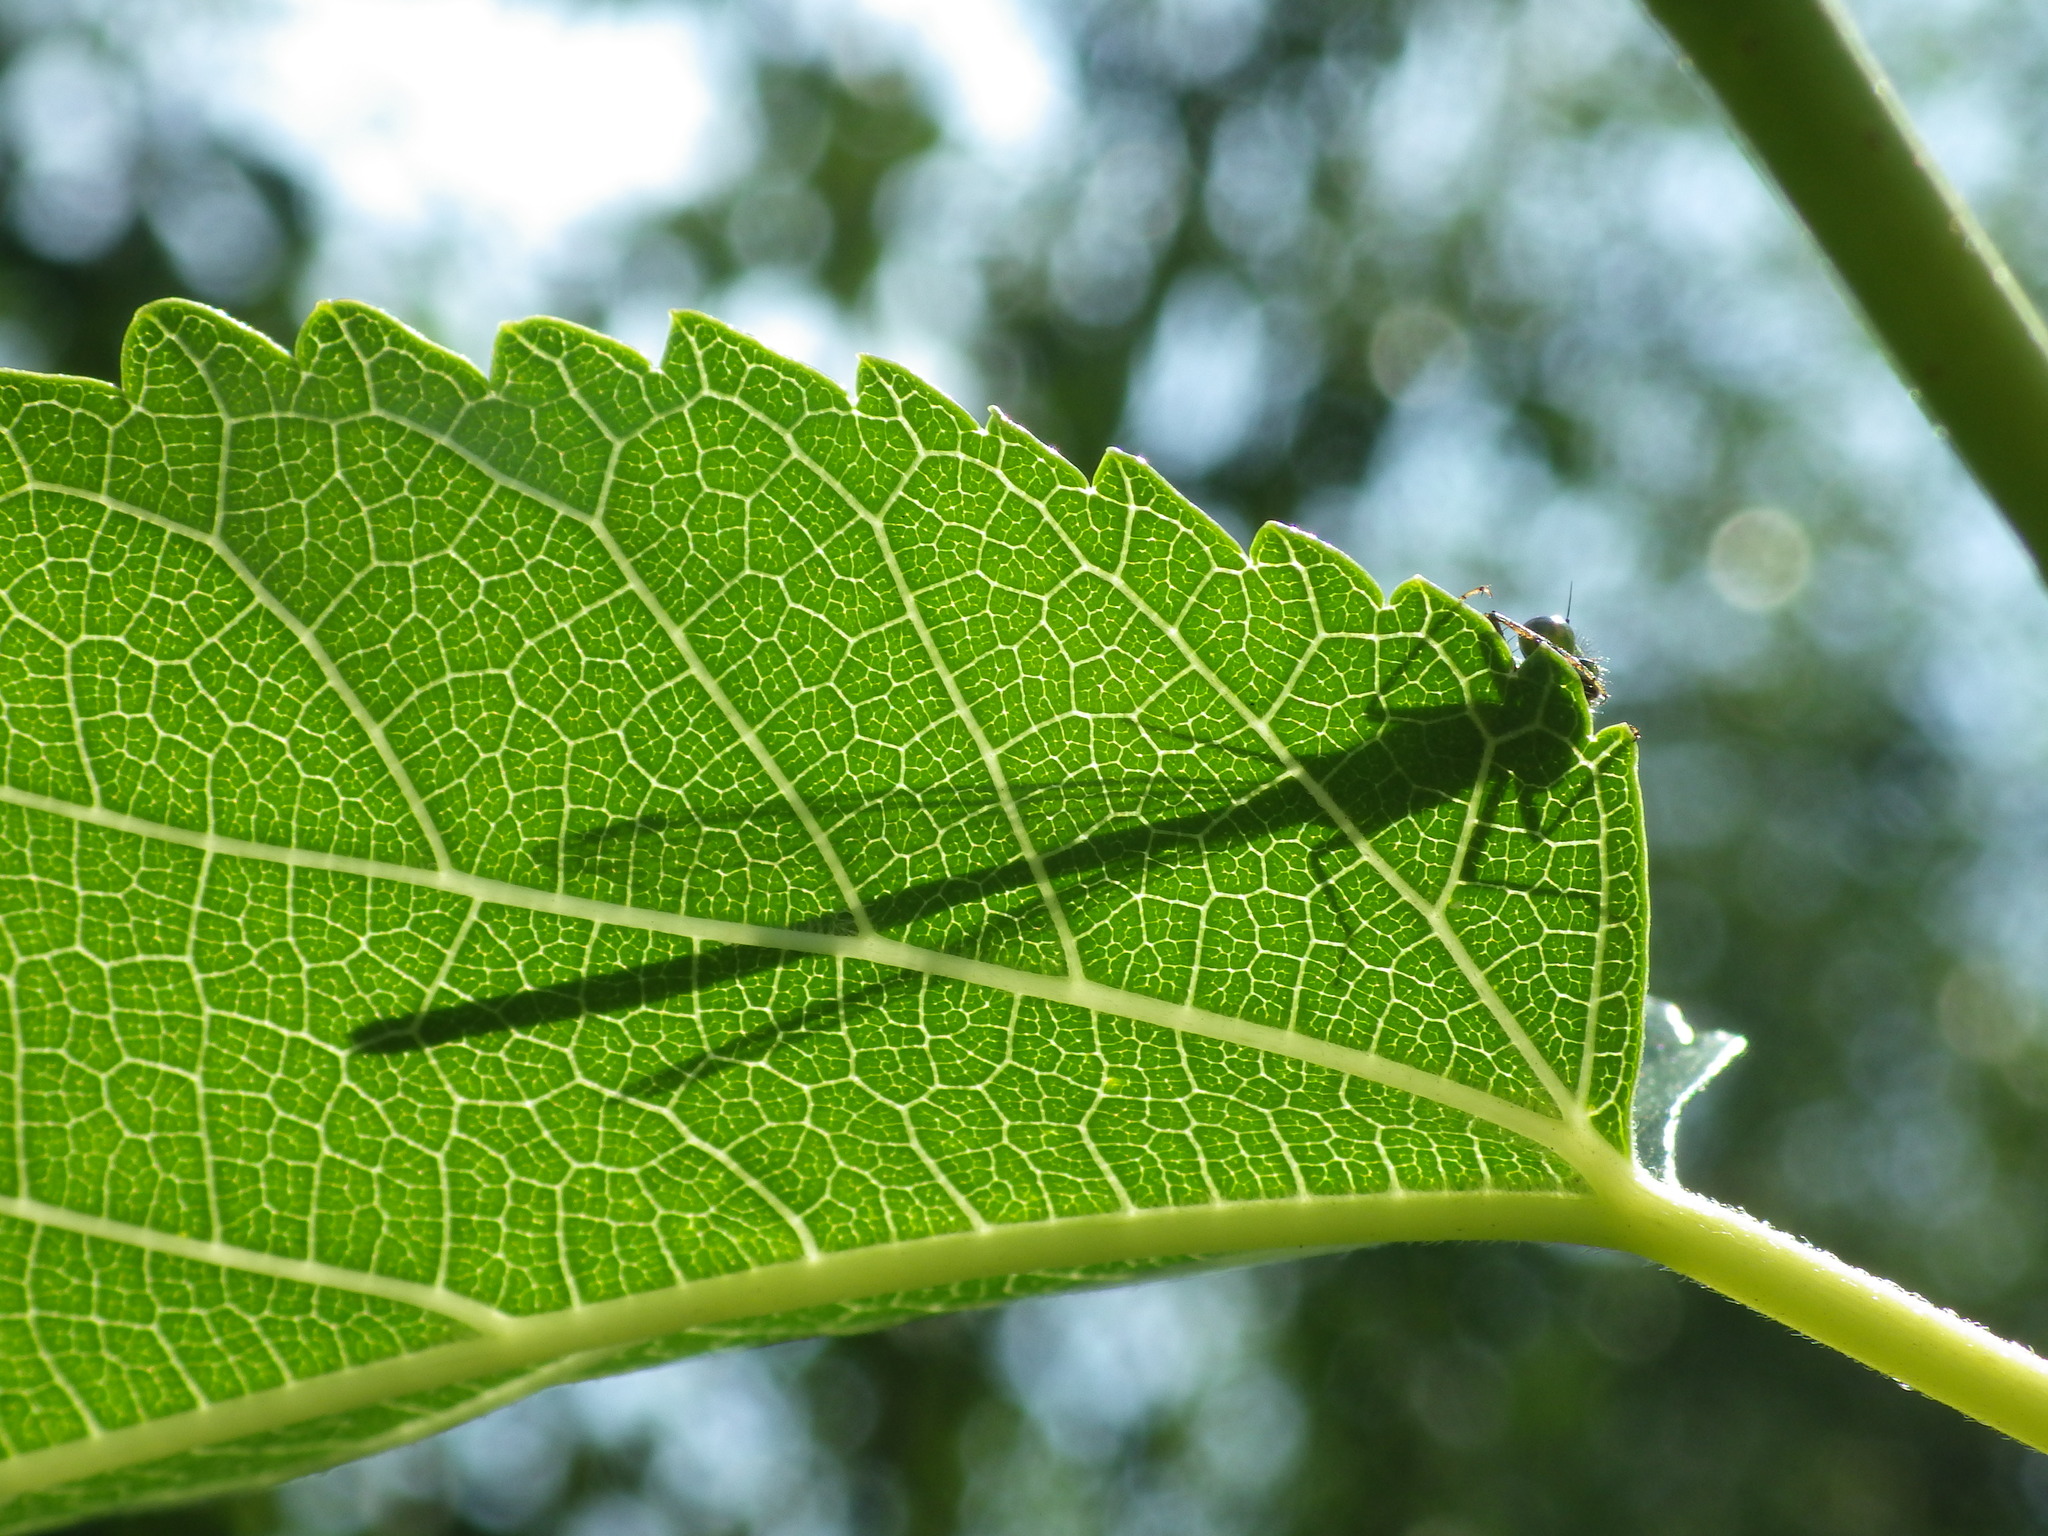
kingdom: Animalia
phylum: Arthropoda
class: Insecta
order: Odonata
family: Coenagrionidae
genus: Ischnura
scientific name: Ischnura cervula
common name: Pacific forktail
